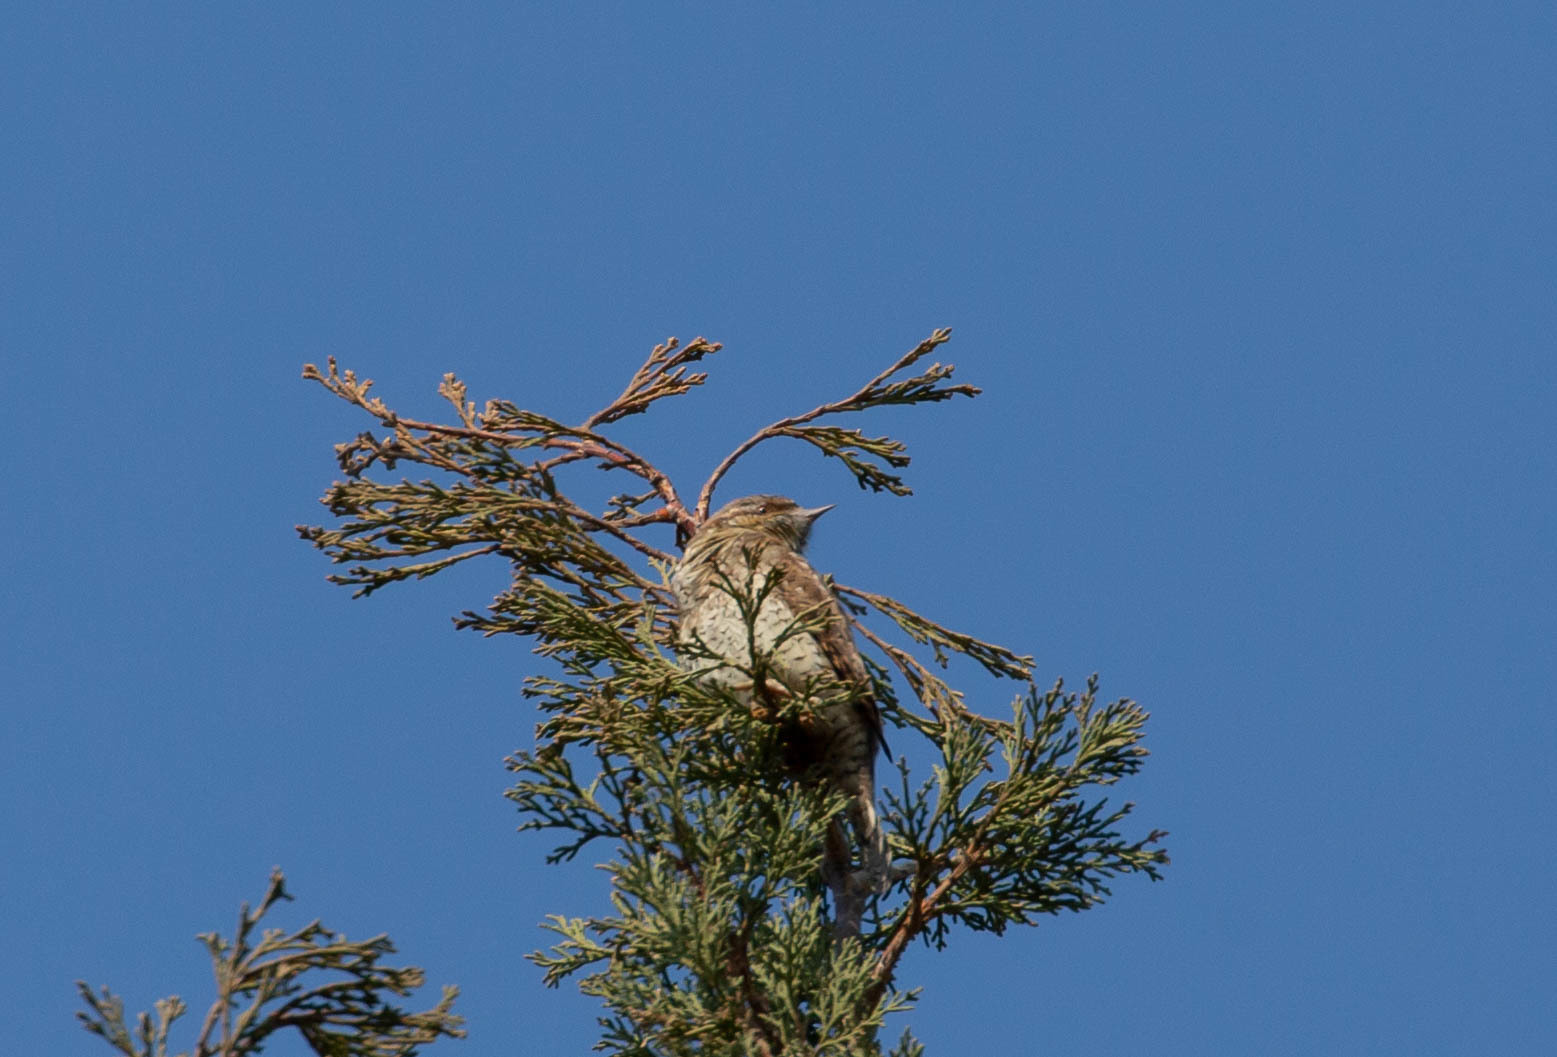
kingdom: Animalia
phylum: Chordata
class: Aves
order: Piciformes
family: Picidae
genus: Jynx
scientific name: Jynx torquilla
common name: Eurasian wryneck
